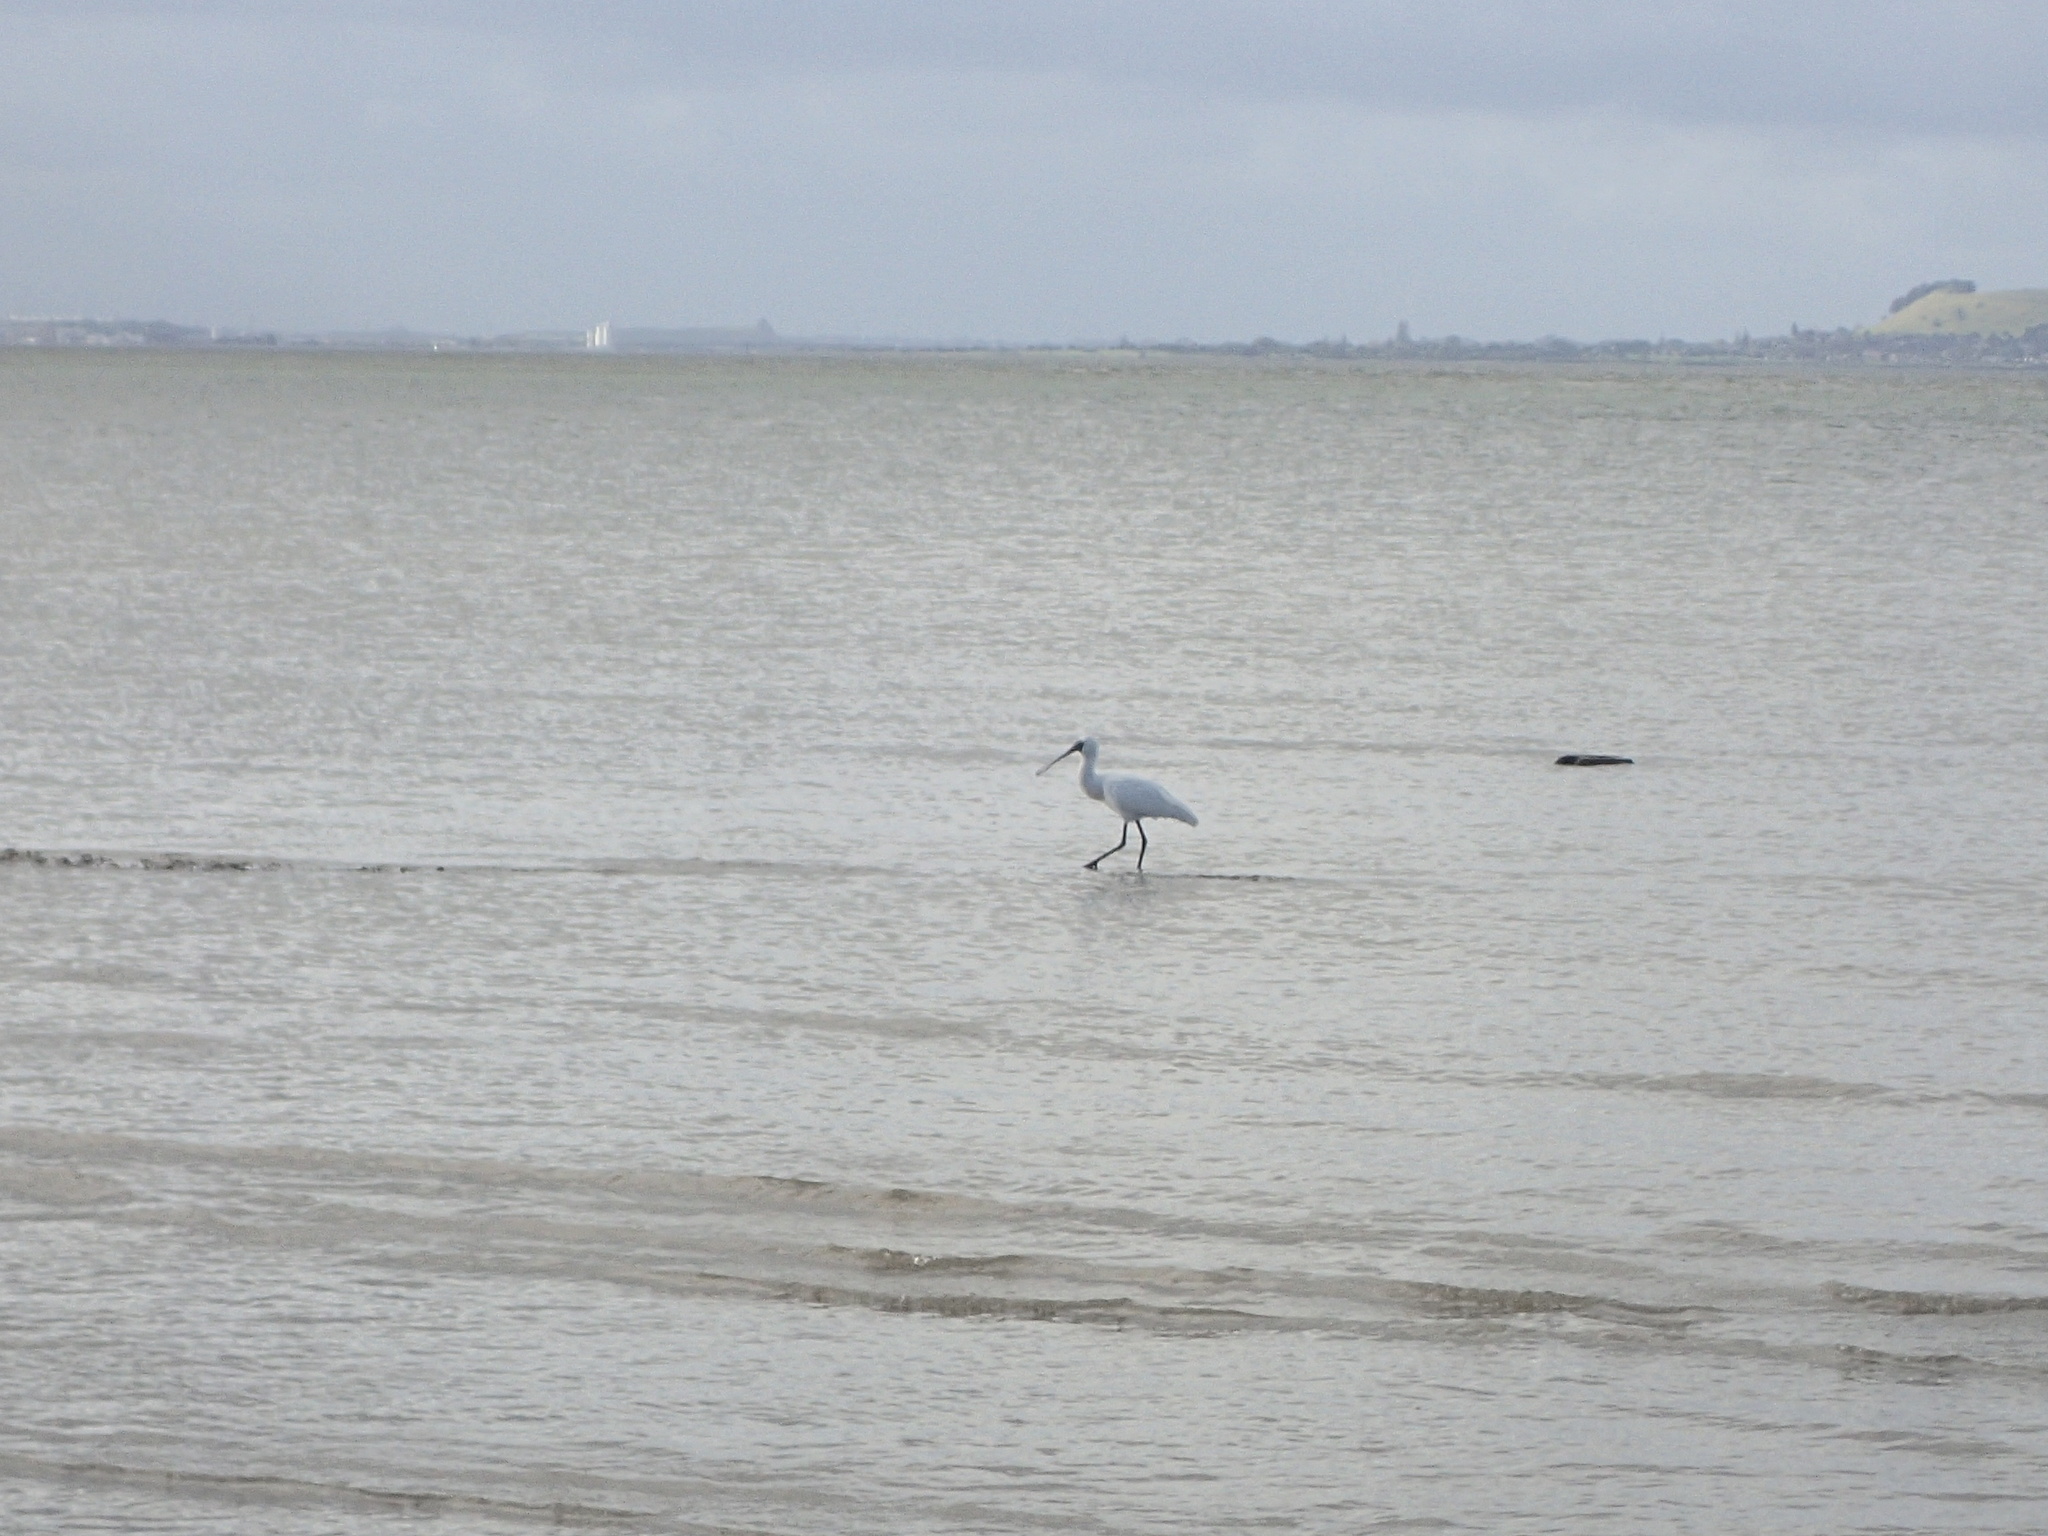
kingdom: Animalia
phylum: Chordata
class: Aves
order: Pelecaniformes
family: Threskiornithidae
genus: Platalea
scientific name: Platalea regia
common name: Royal spoonbill
